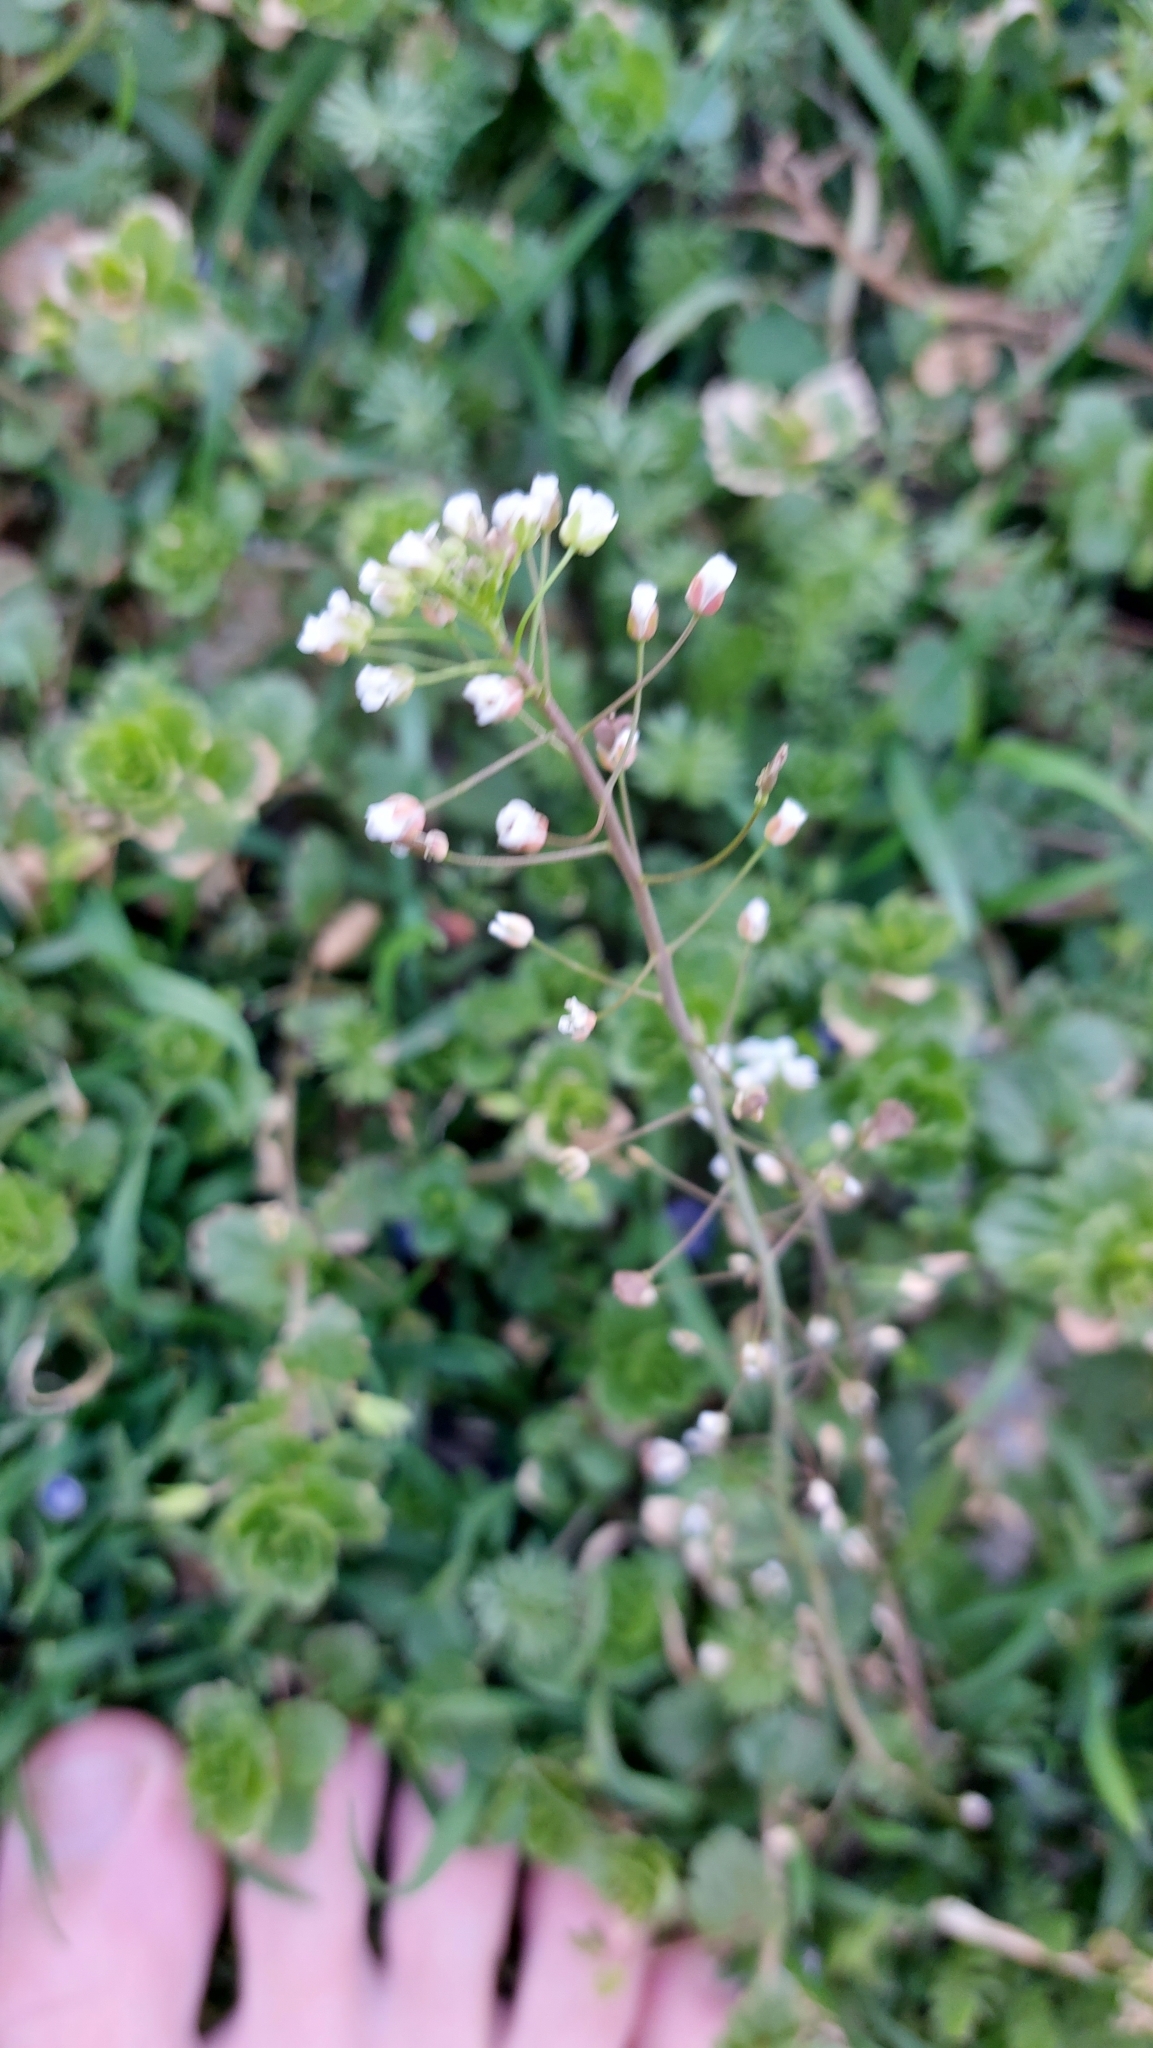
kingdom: Plantae
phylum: Tracheophyta
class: Magnoliopsida
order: Brassicales
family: Brassicaceae
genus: Capsella
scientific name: Capsella bursa-pastoris
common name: Shepherd's purse
